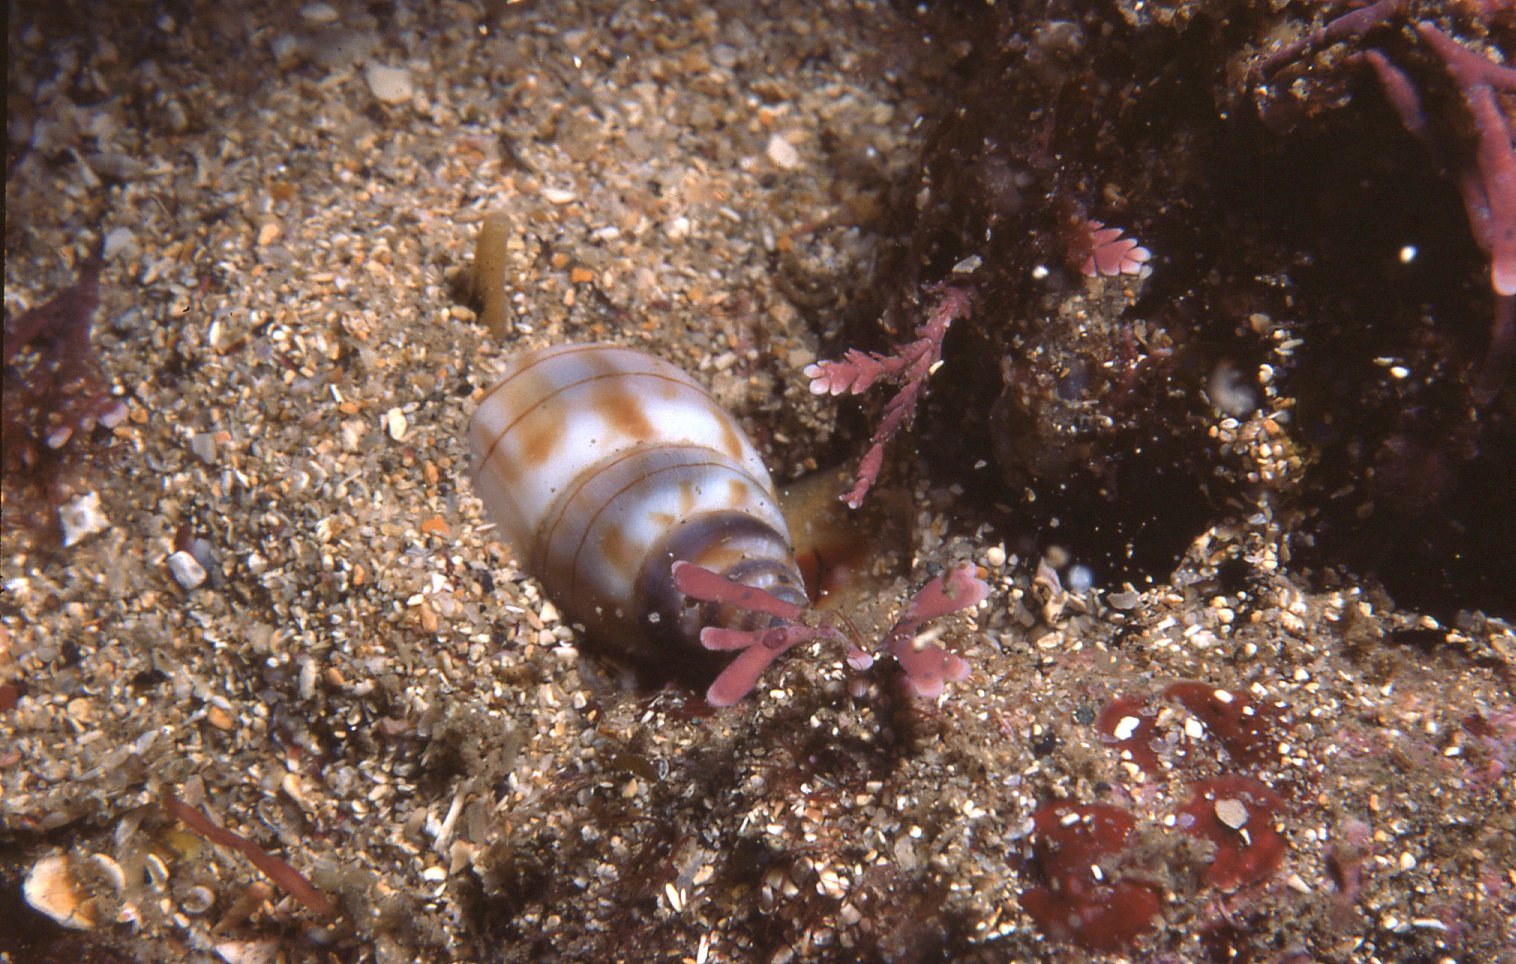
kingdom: Animalia
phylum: Mollusca
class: Gastropoda
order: Neogastropoda
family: Nassariidae
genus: Nassarius
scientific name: Nassarius particeps
